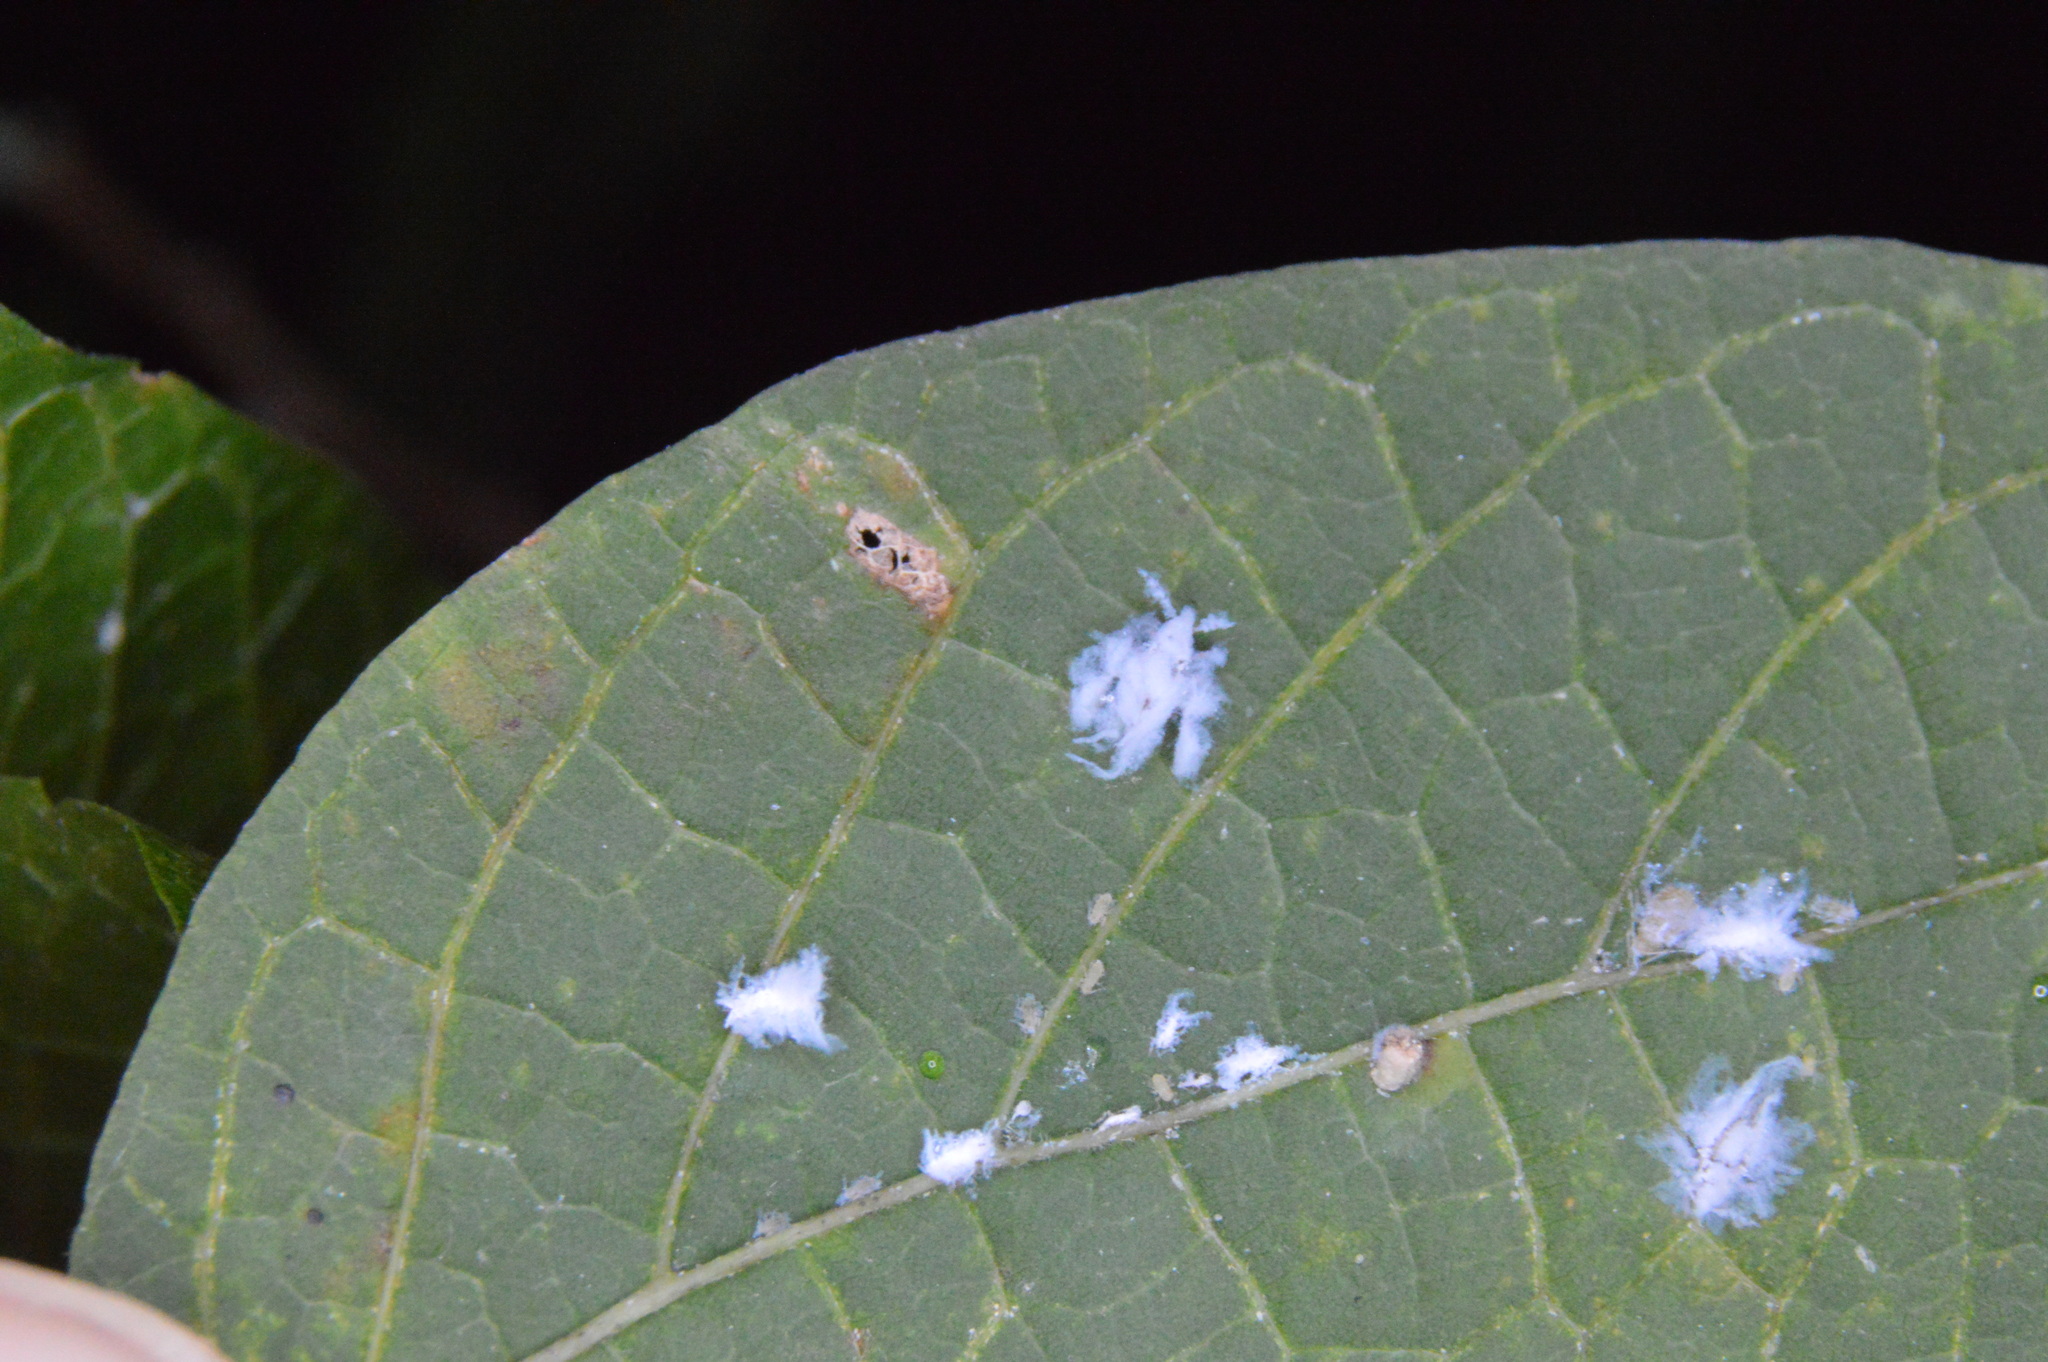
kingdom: Animalia
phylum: Arthropoda
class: Insecta
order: Hemiptera
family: Aphididae
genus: Shivaphis
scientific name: Shivaphis celti
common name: Asian wooly hackberry aphid
